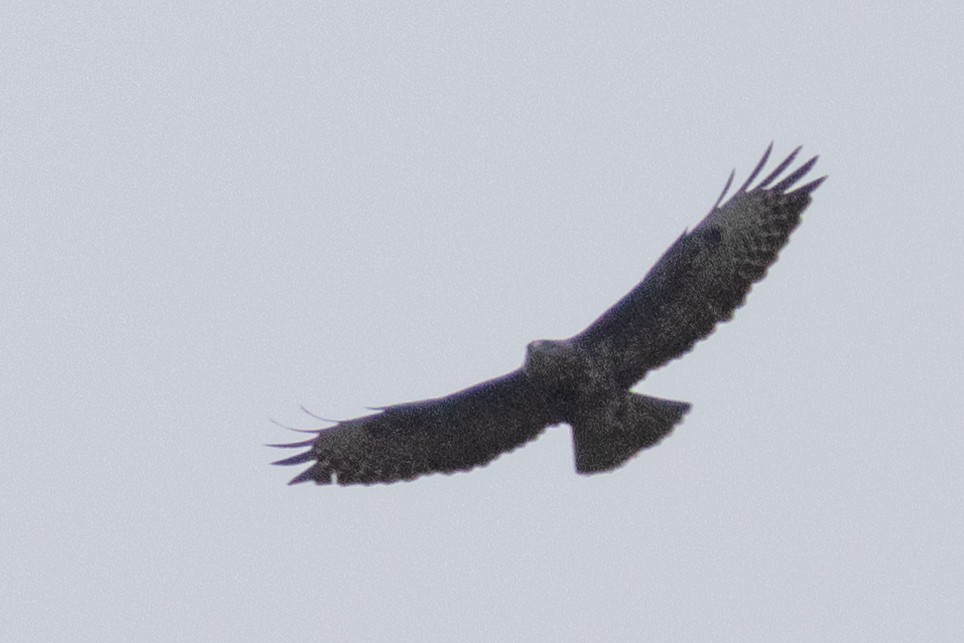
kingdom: Animalia
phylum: Chordata
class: Aves
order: Accipitriformes
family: Accipitridae
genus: Buteo
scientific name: Buteo buteo
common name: Common buzzard
